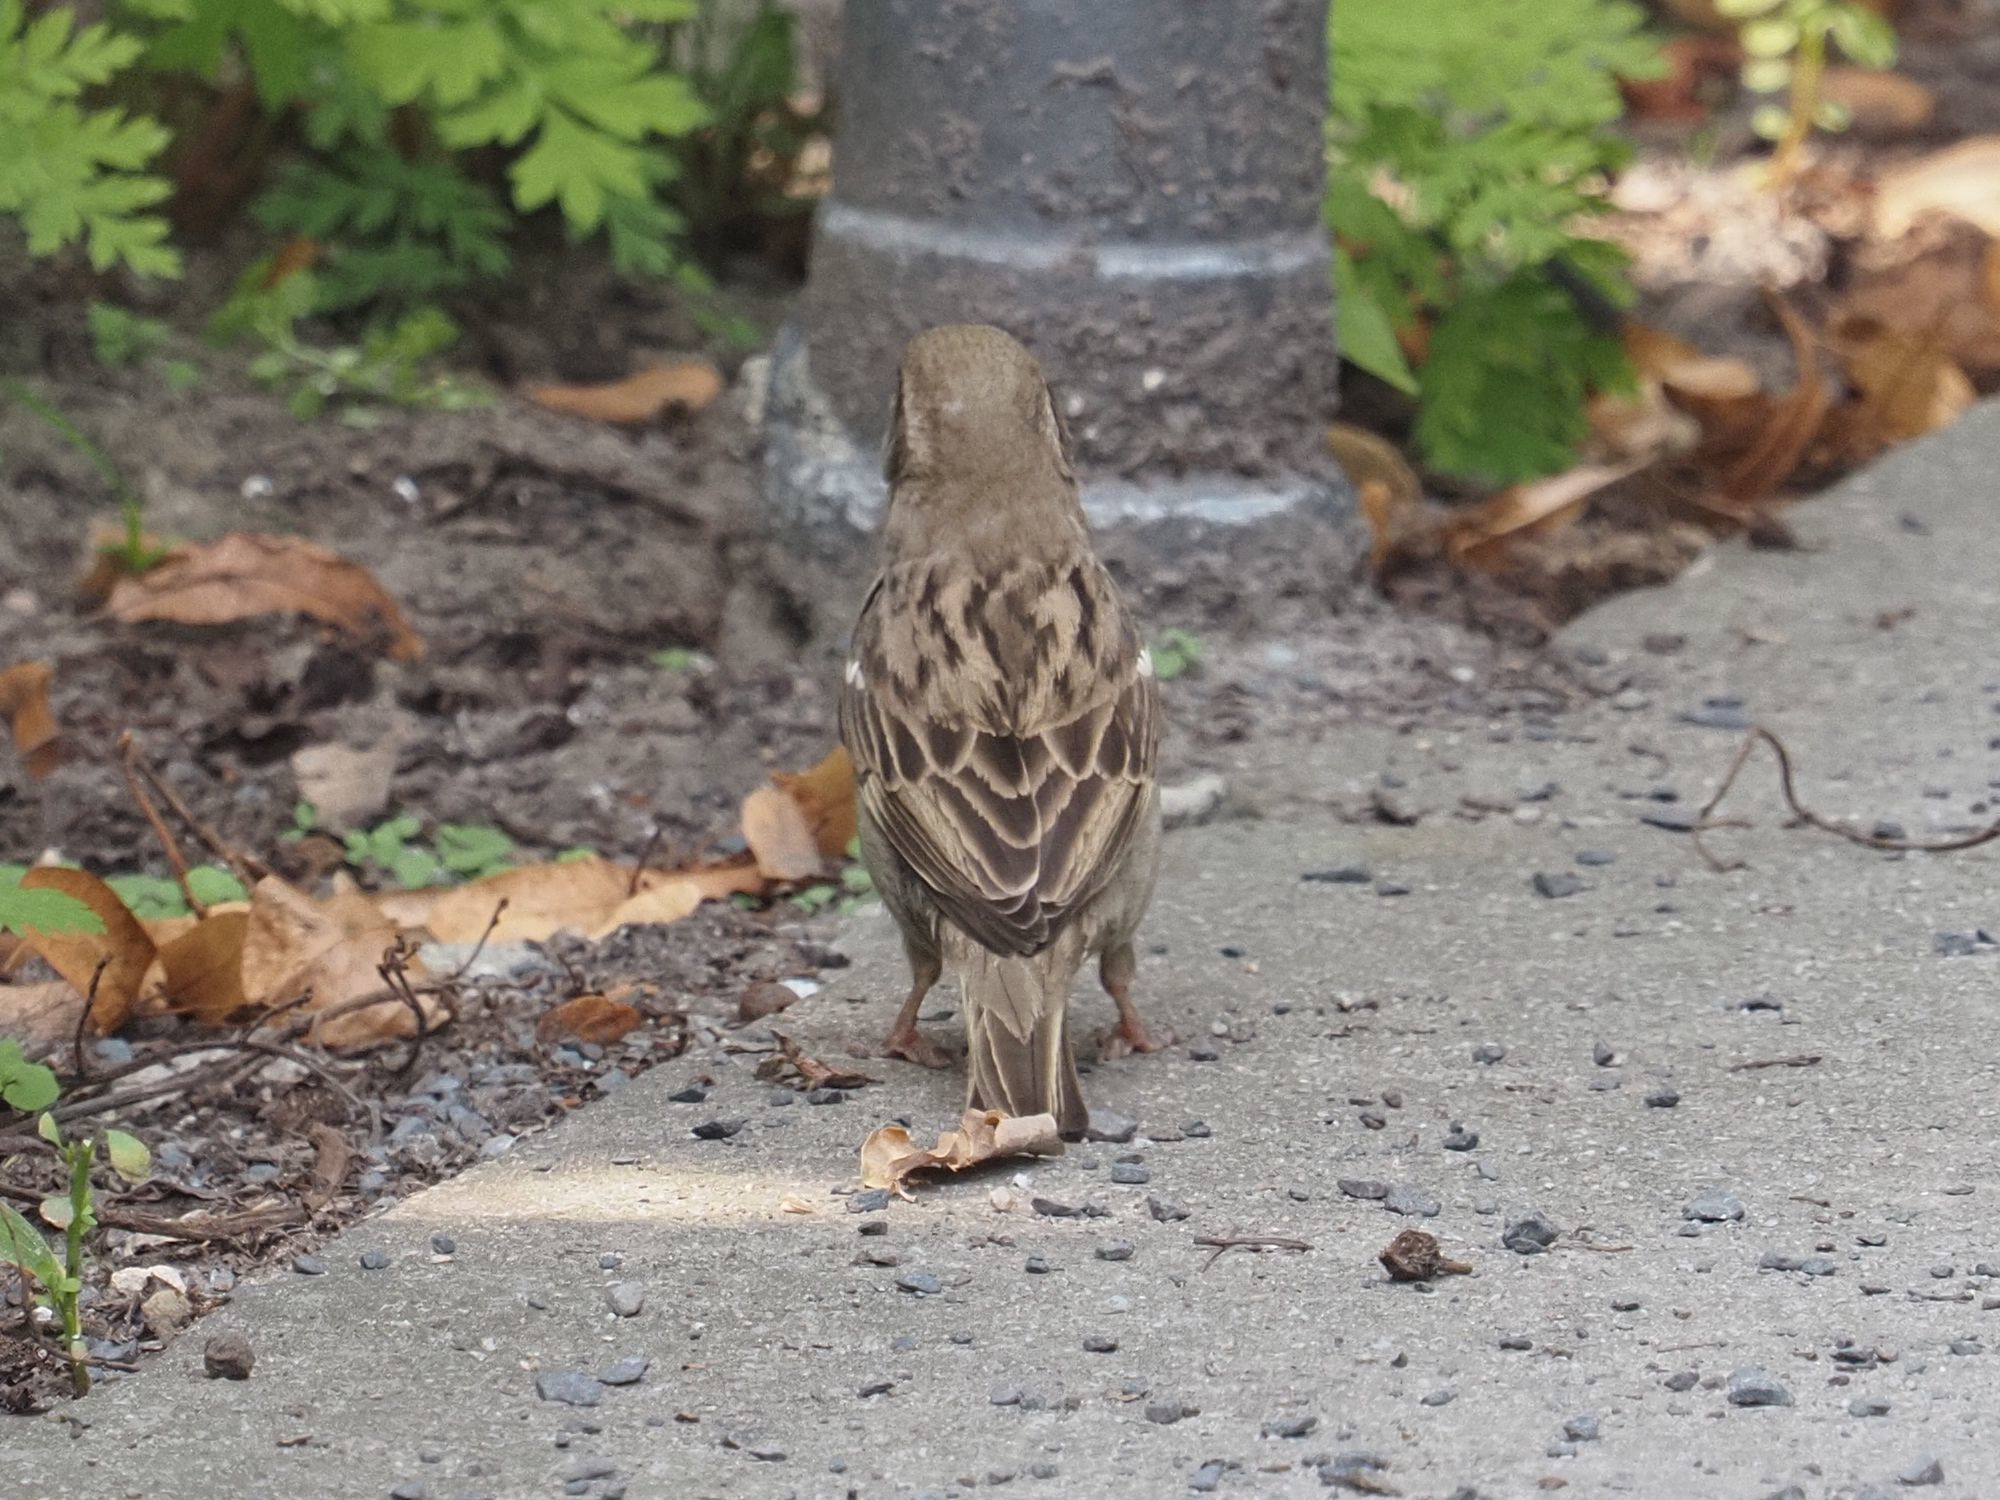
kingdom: Animalia
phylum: Chordata
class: Aves
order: Passeriformes
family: Passeridae
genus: Passer
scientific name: Passer domesticus
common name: House sparrow
